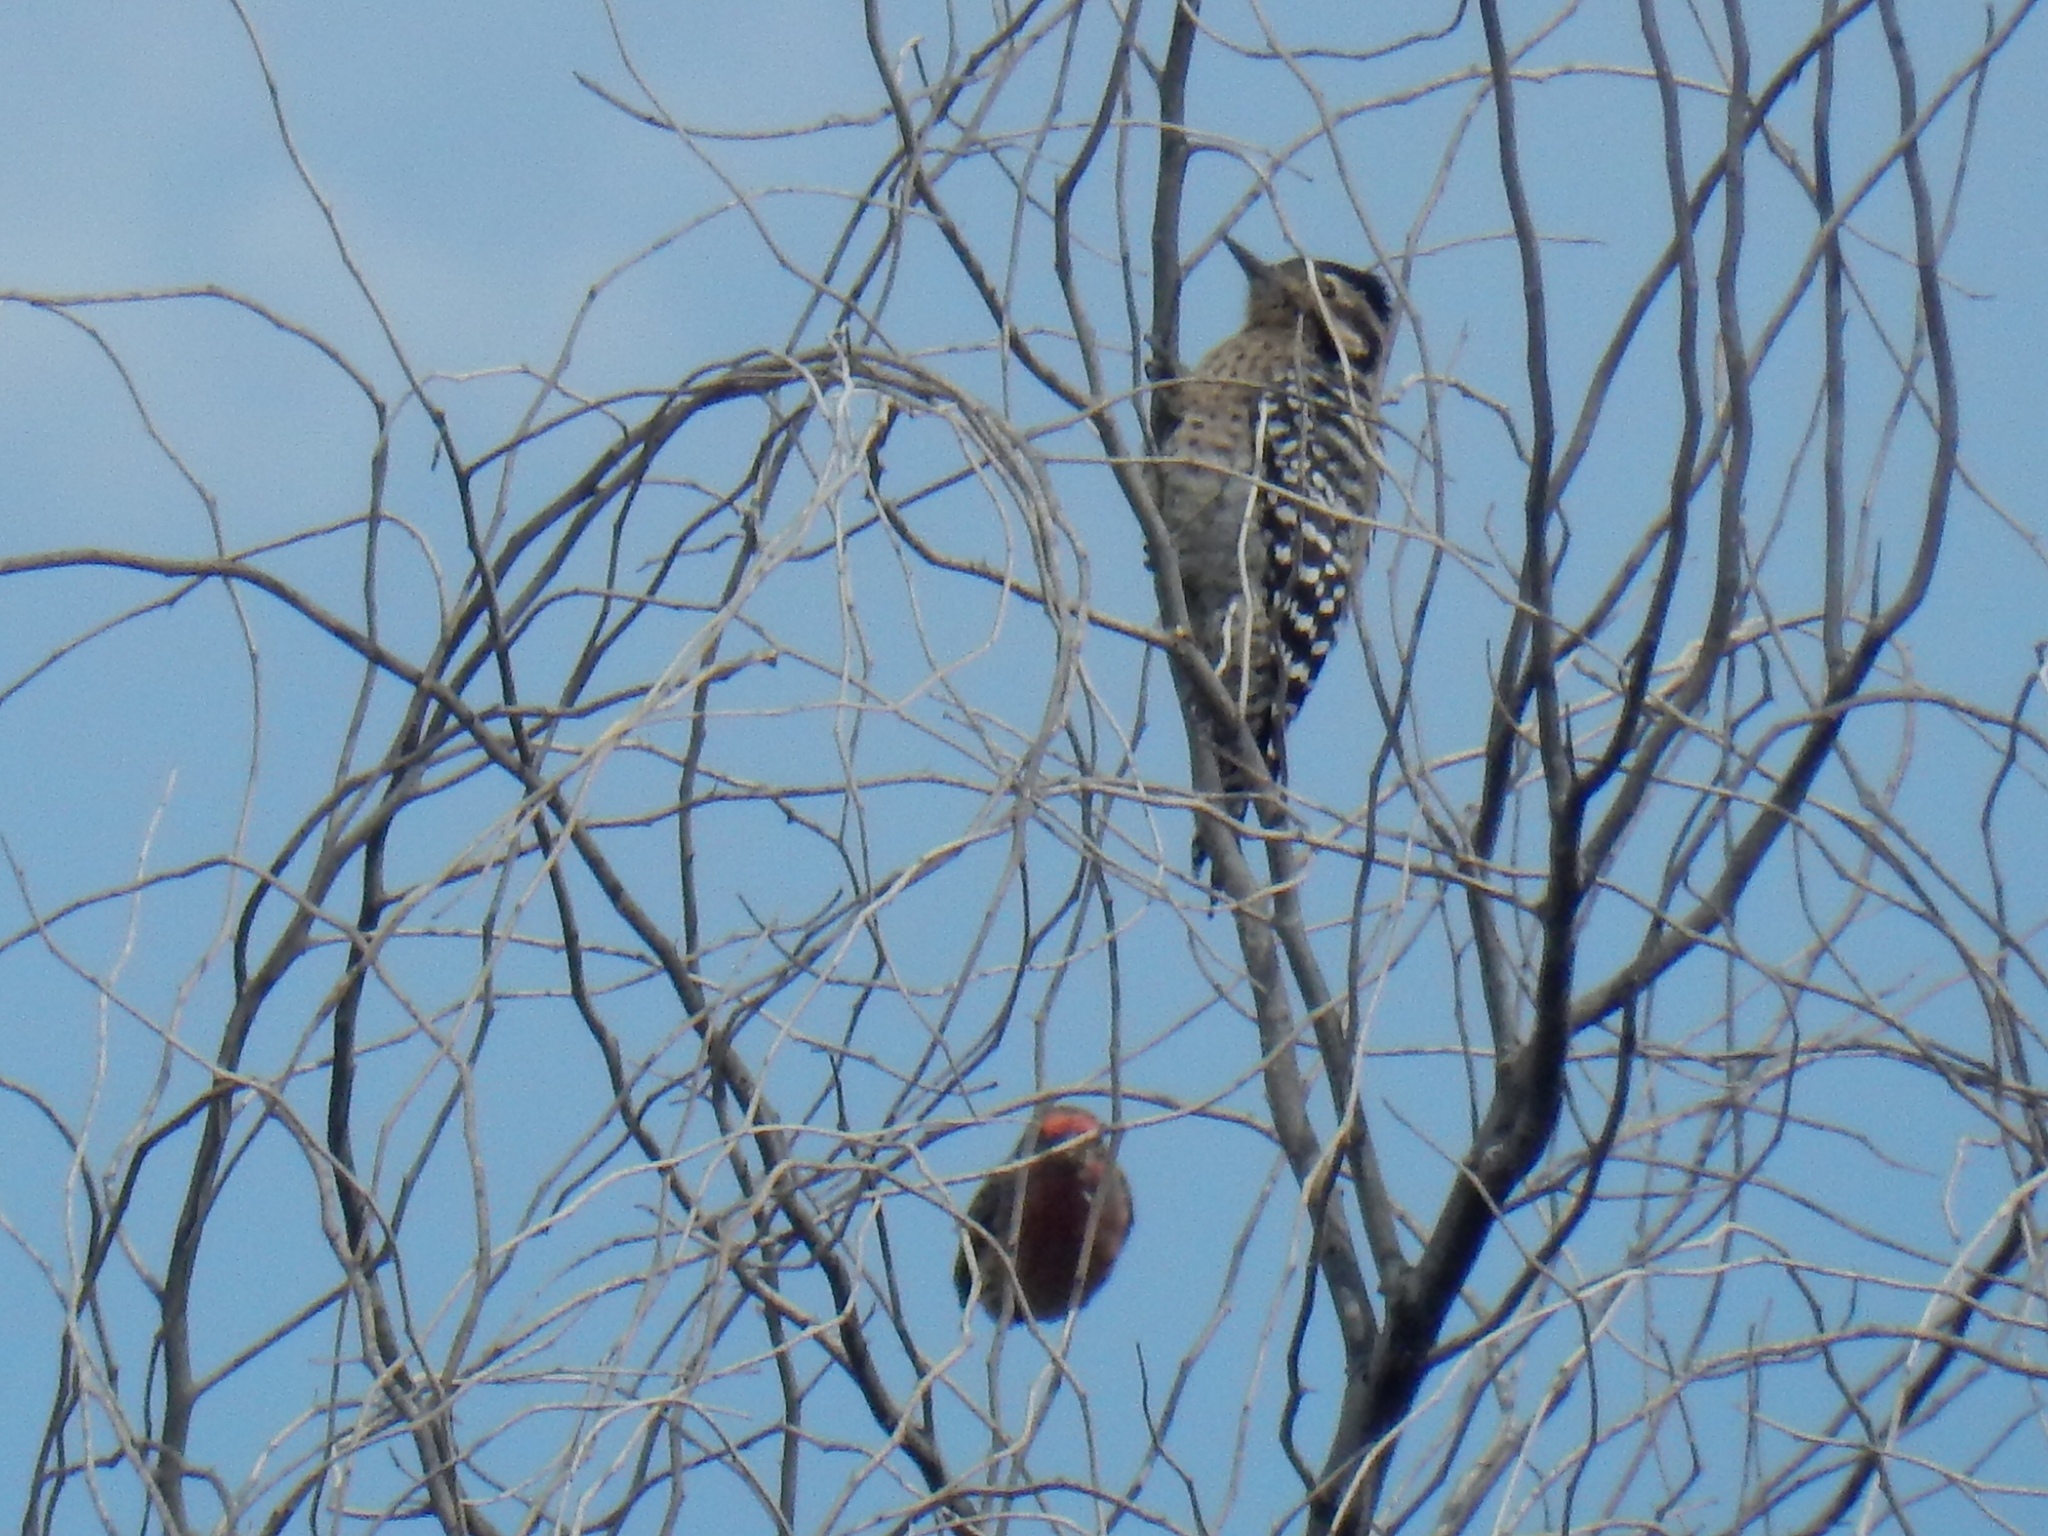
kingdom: Animalia
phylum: Chordata
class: Aves
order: Piciformes
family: Picidae
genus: Dryobates
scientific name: Dryobates scalaris
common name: Ladder-backed woodpecker
